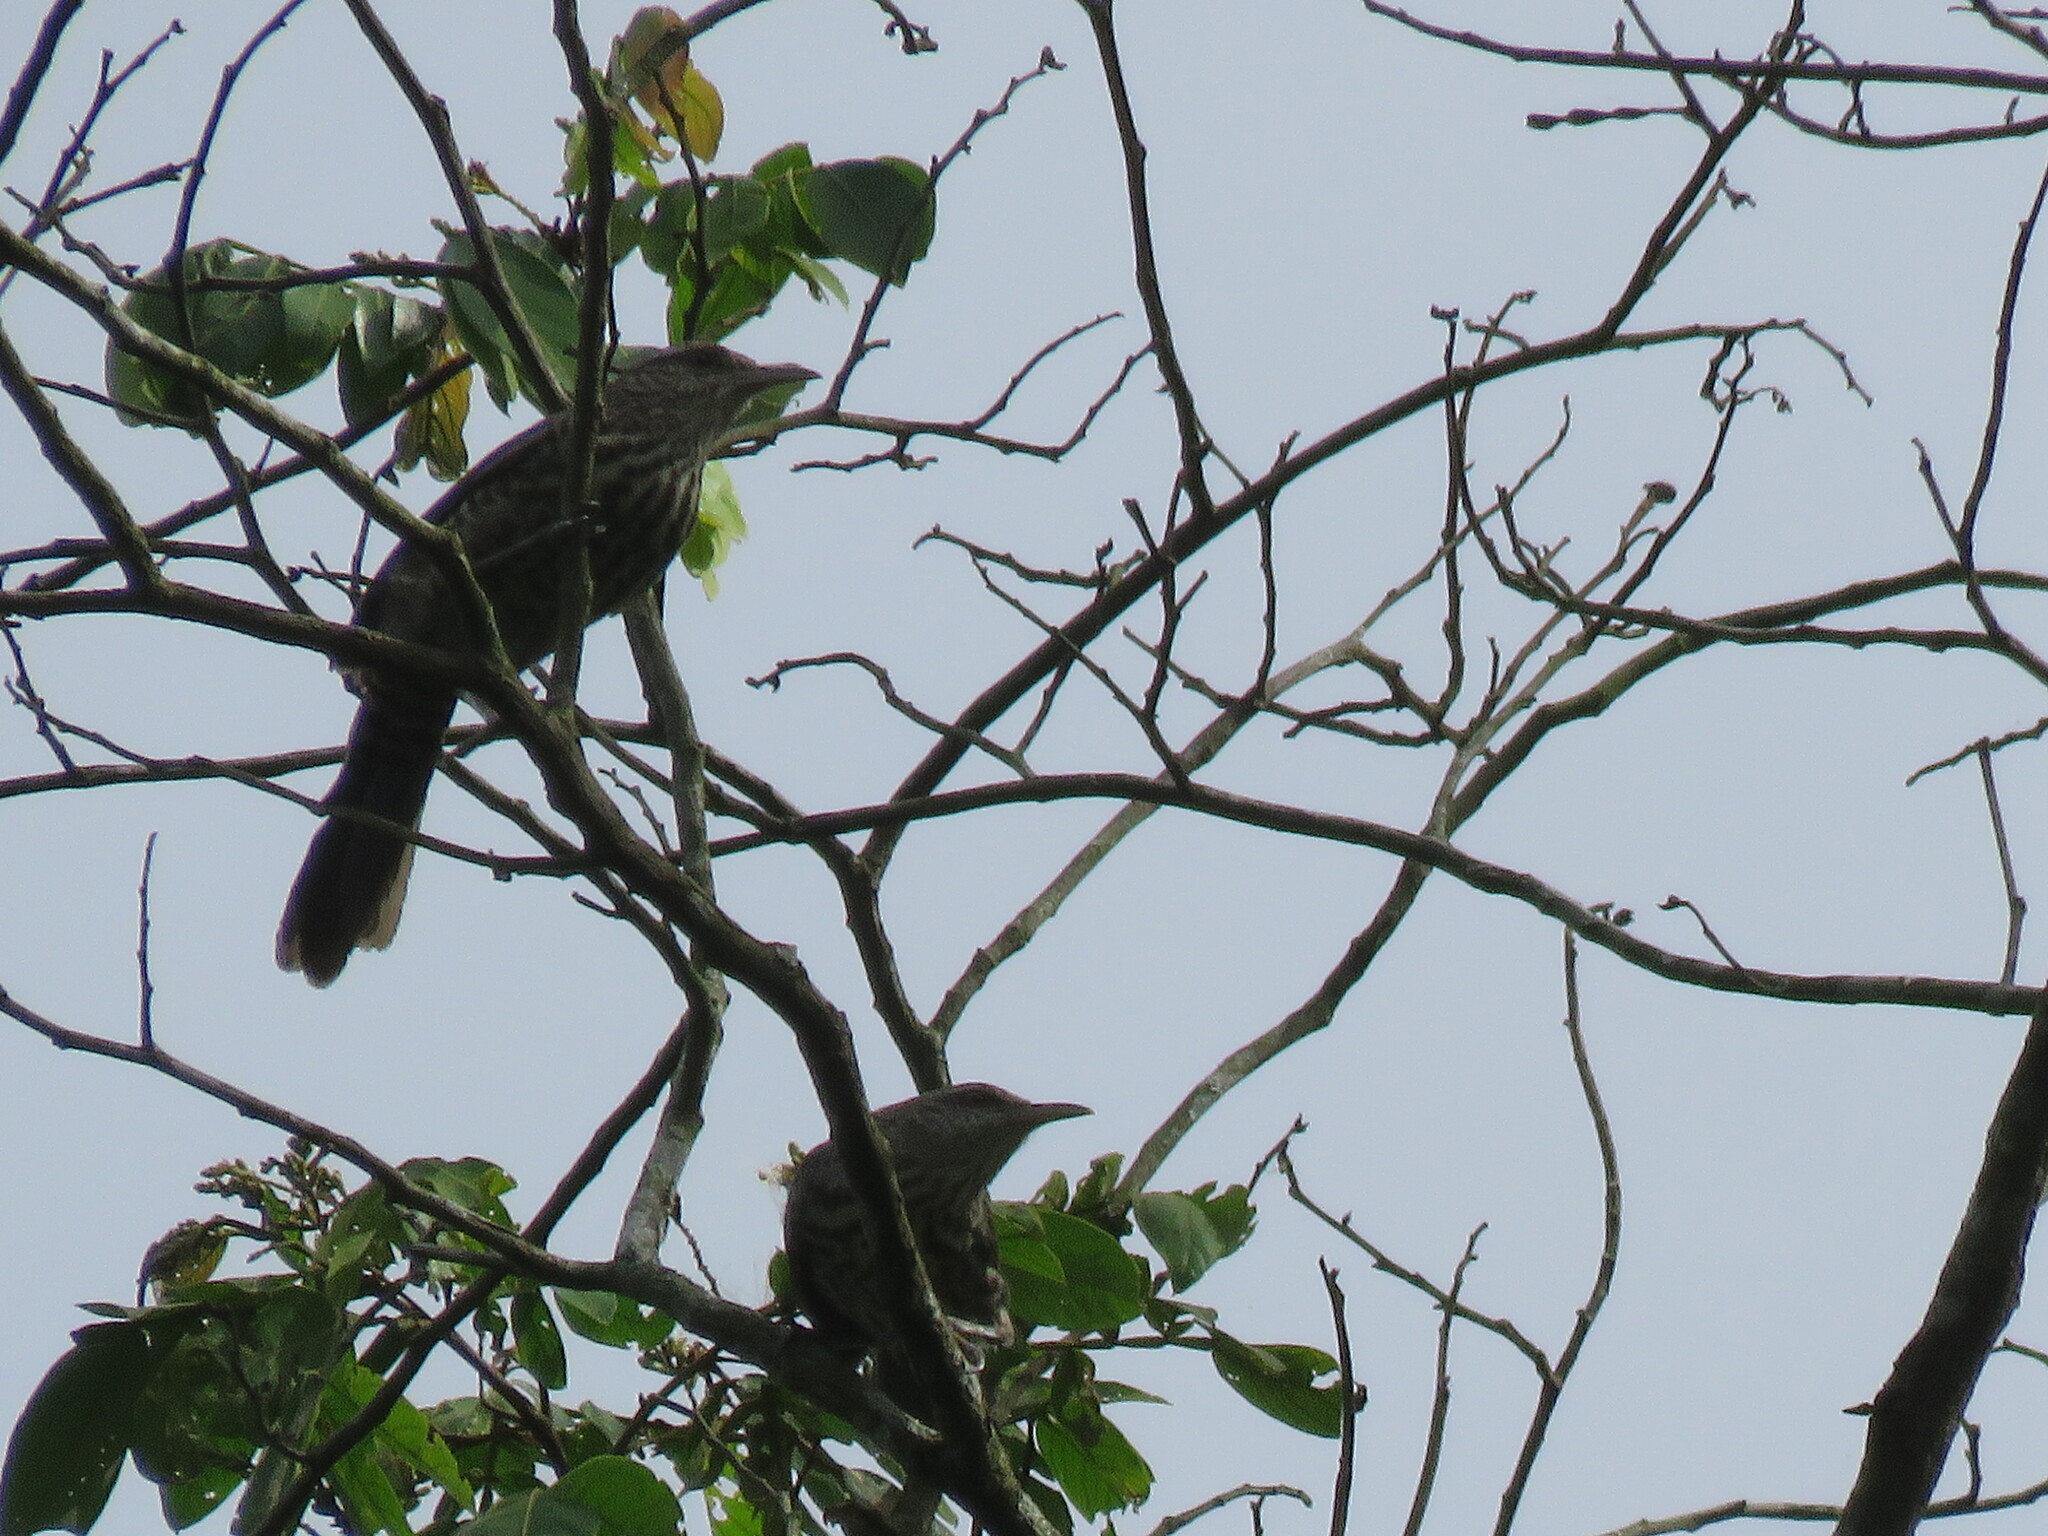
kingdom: Animalia
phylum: Chordata
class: Aves
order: Passeriformes
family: Troglodytidae
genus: Campylorhynchus
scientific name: Campylorhynchus turdinus
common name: Thrush-like wren
